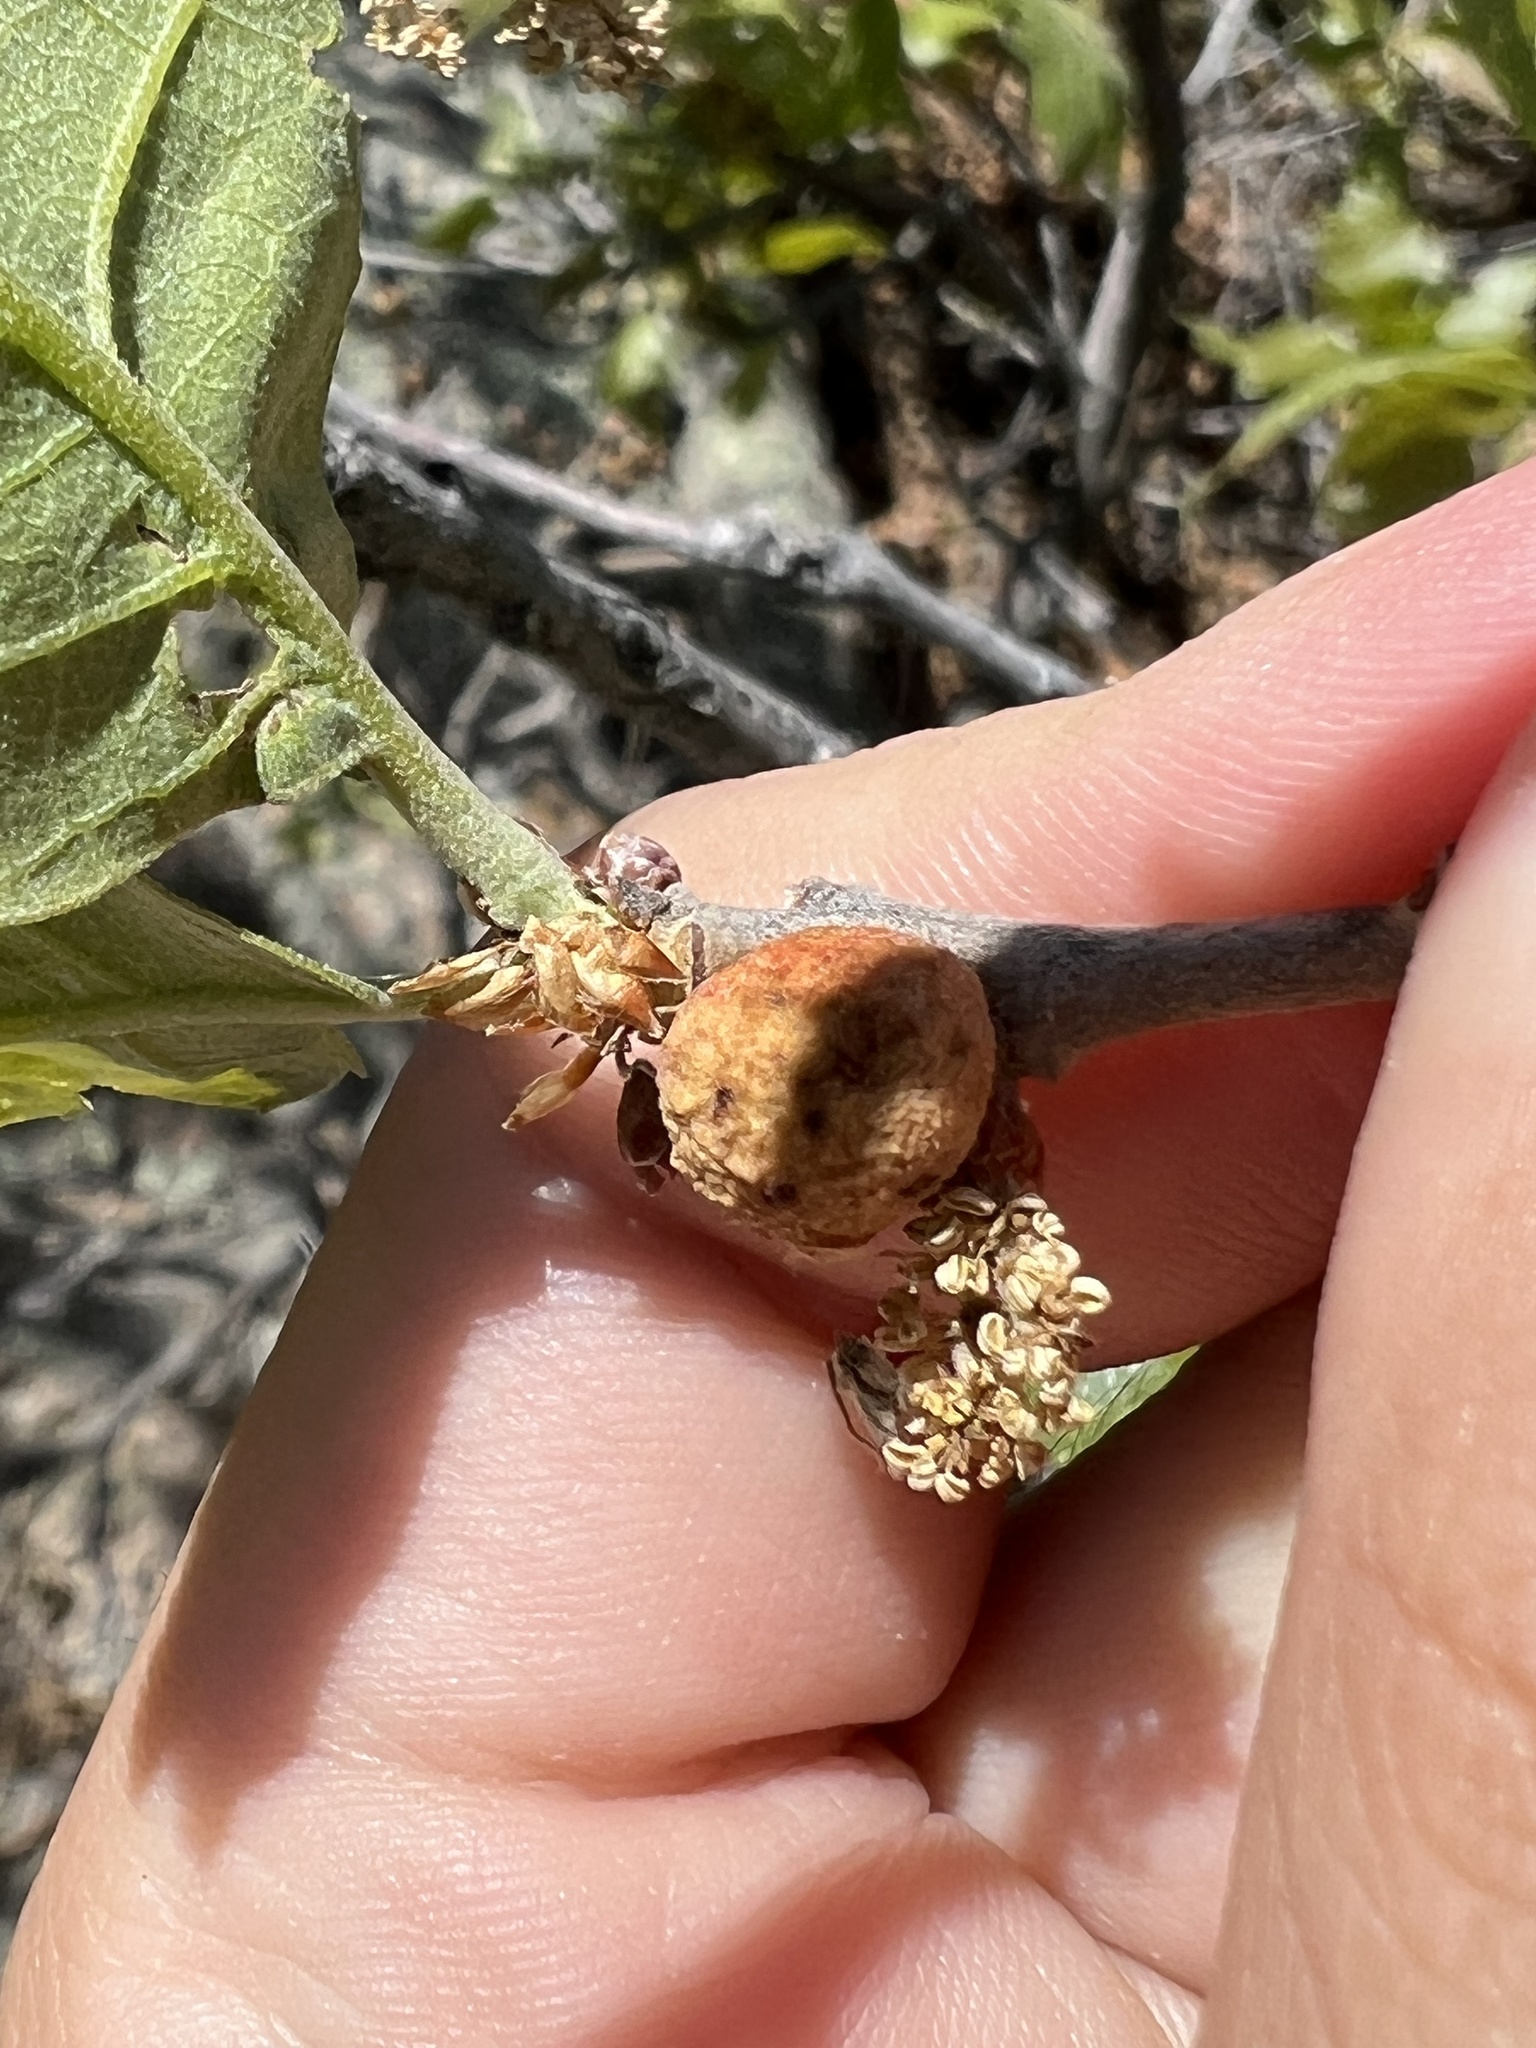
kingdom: Animalia
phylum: Arthropoda
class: Insecta
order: Hymenoptera
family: Cynipidae
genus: Disholcaspis
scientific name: Disholcaspis
